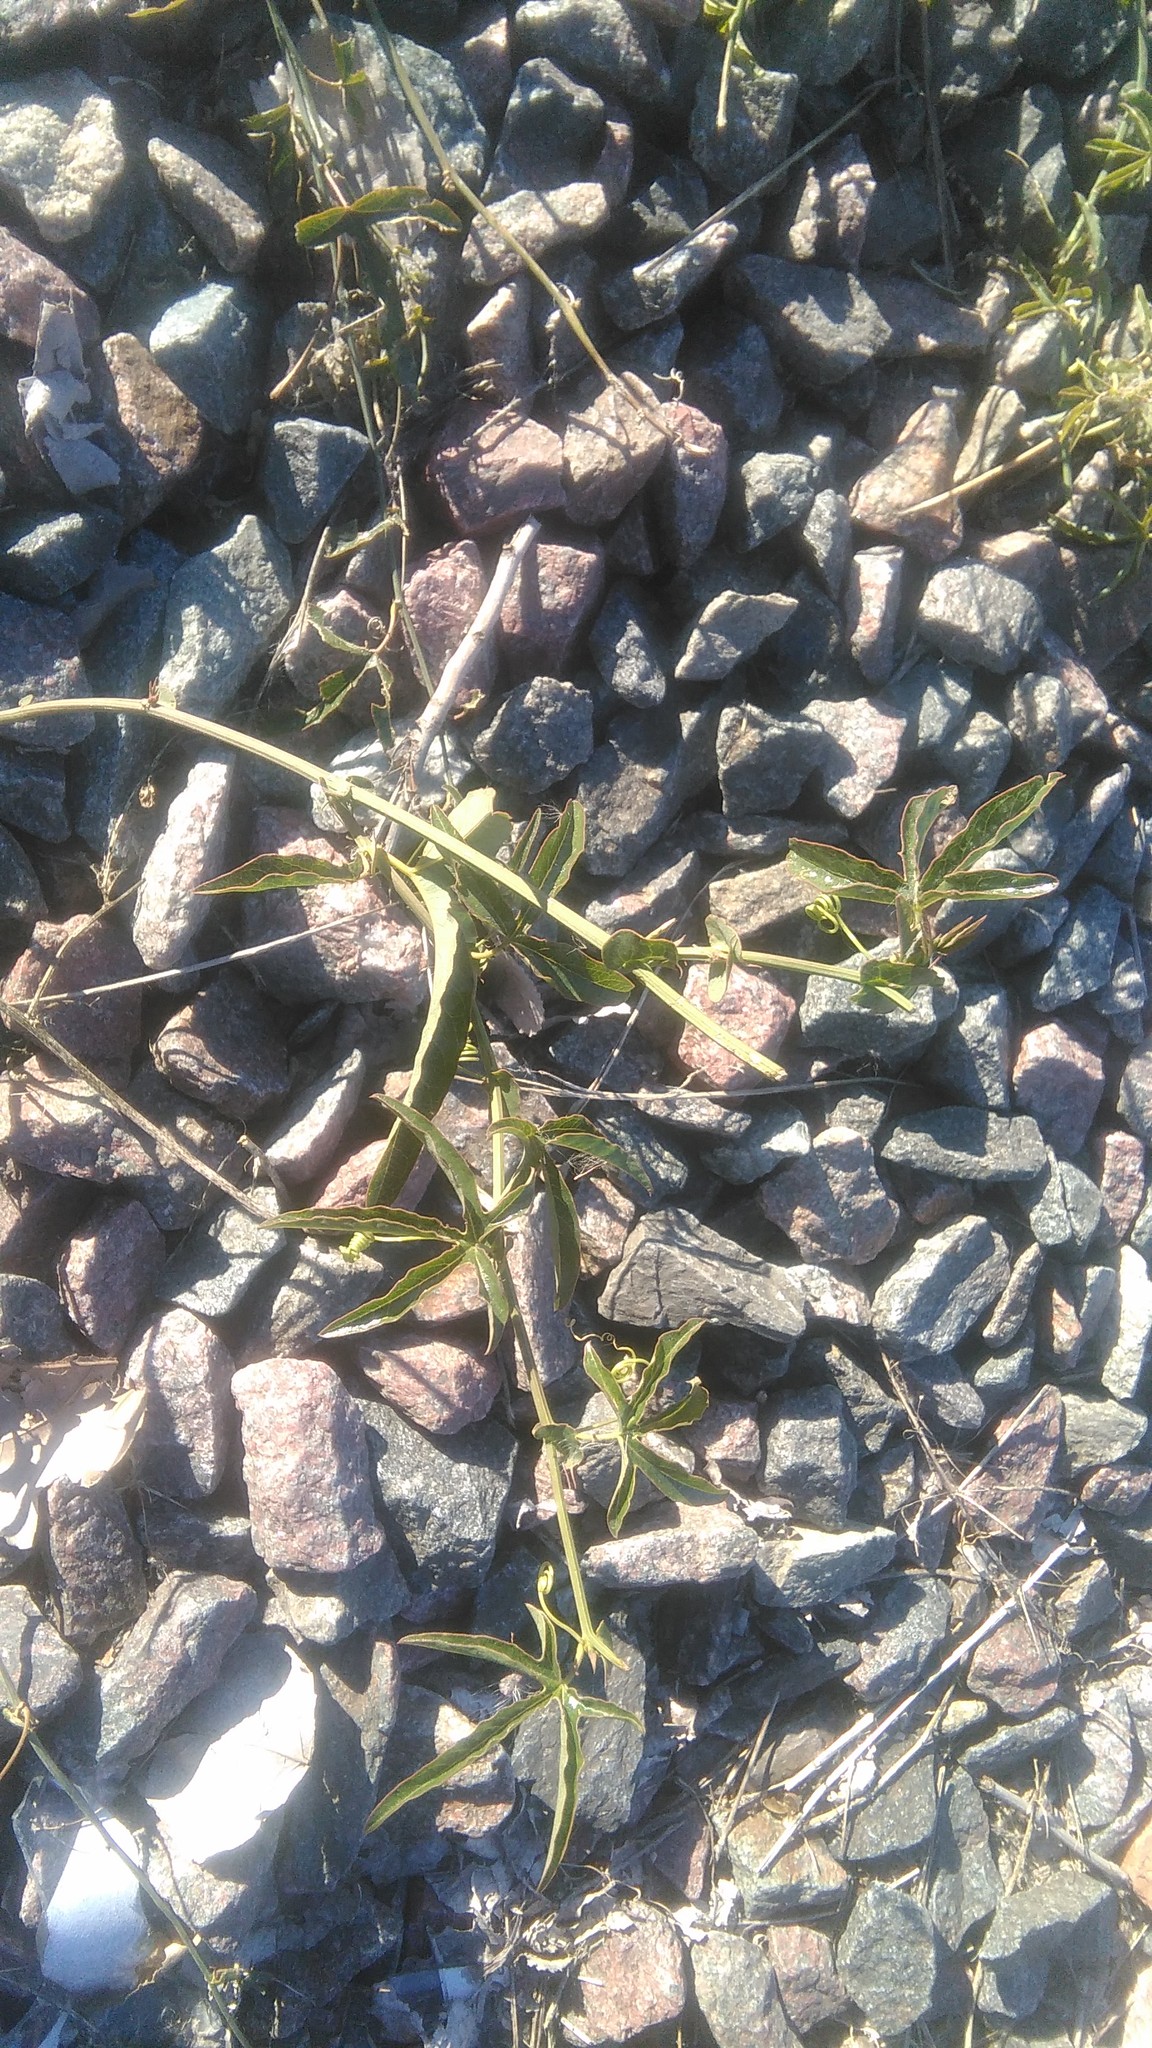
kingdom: Plantae
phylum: Tracheophyta
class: Magnoliopsida
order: Malpighiales
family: Passifloraceae
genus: Passiflora
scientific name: Passiflora caerulea
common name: Blue passionflower
